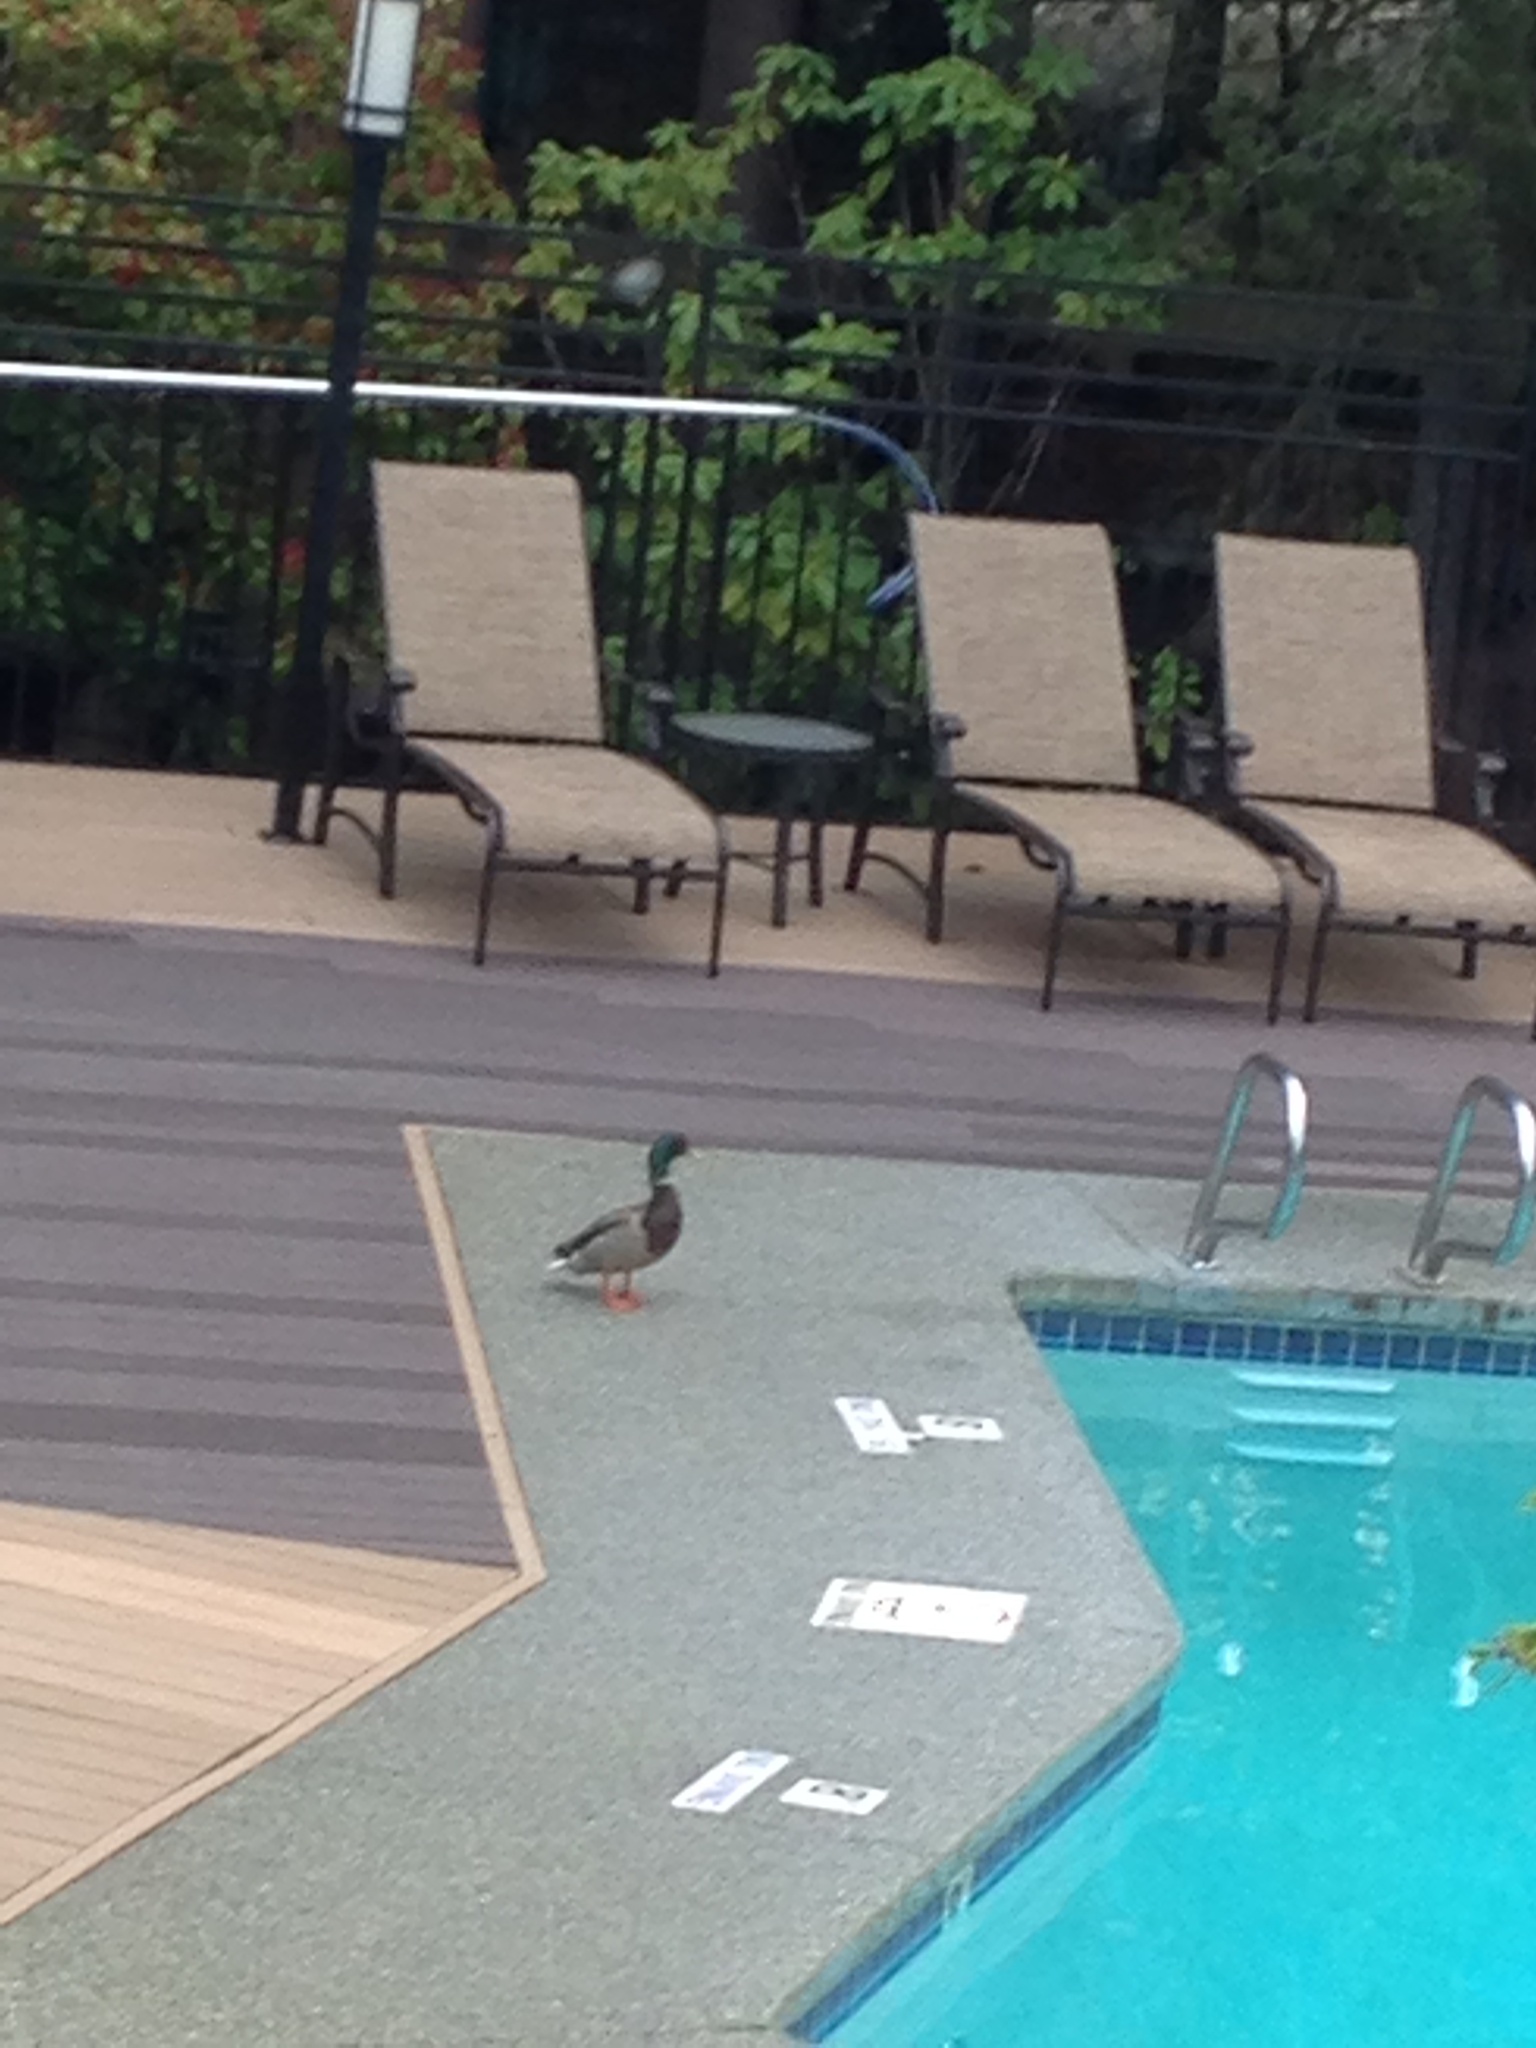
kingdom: Animalia
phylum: Chordata
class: Aves
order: Anseriformes
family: Anatidae
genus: Anas
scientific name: Anas platyrhynchos
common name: Mallard
